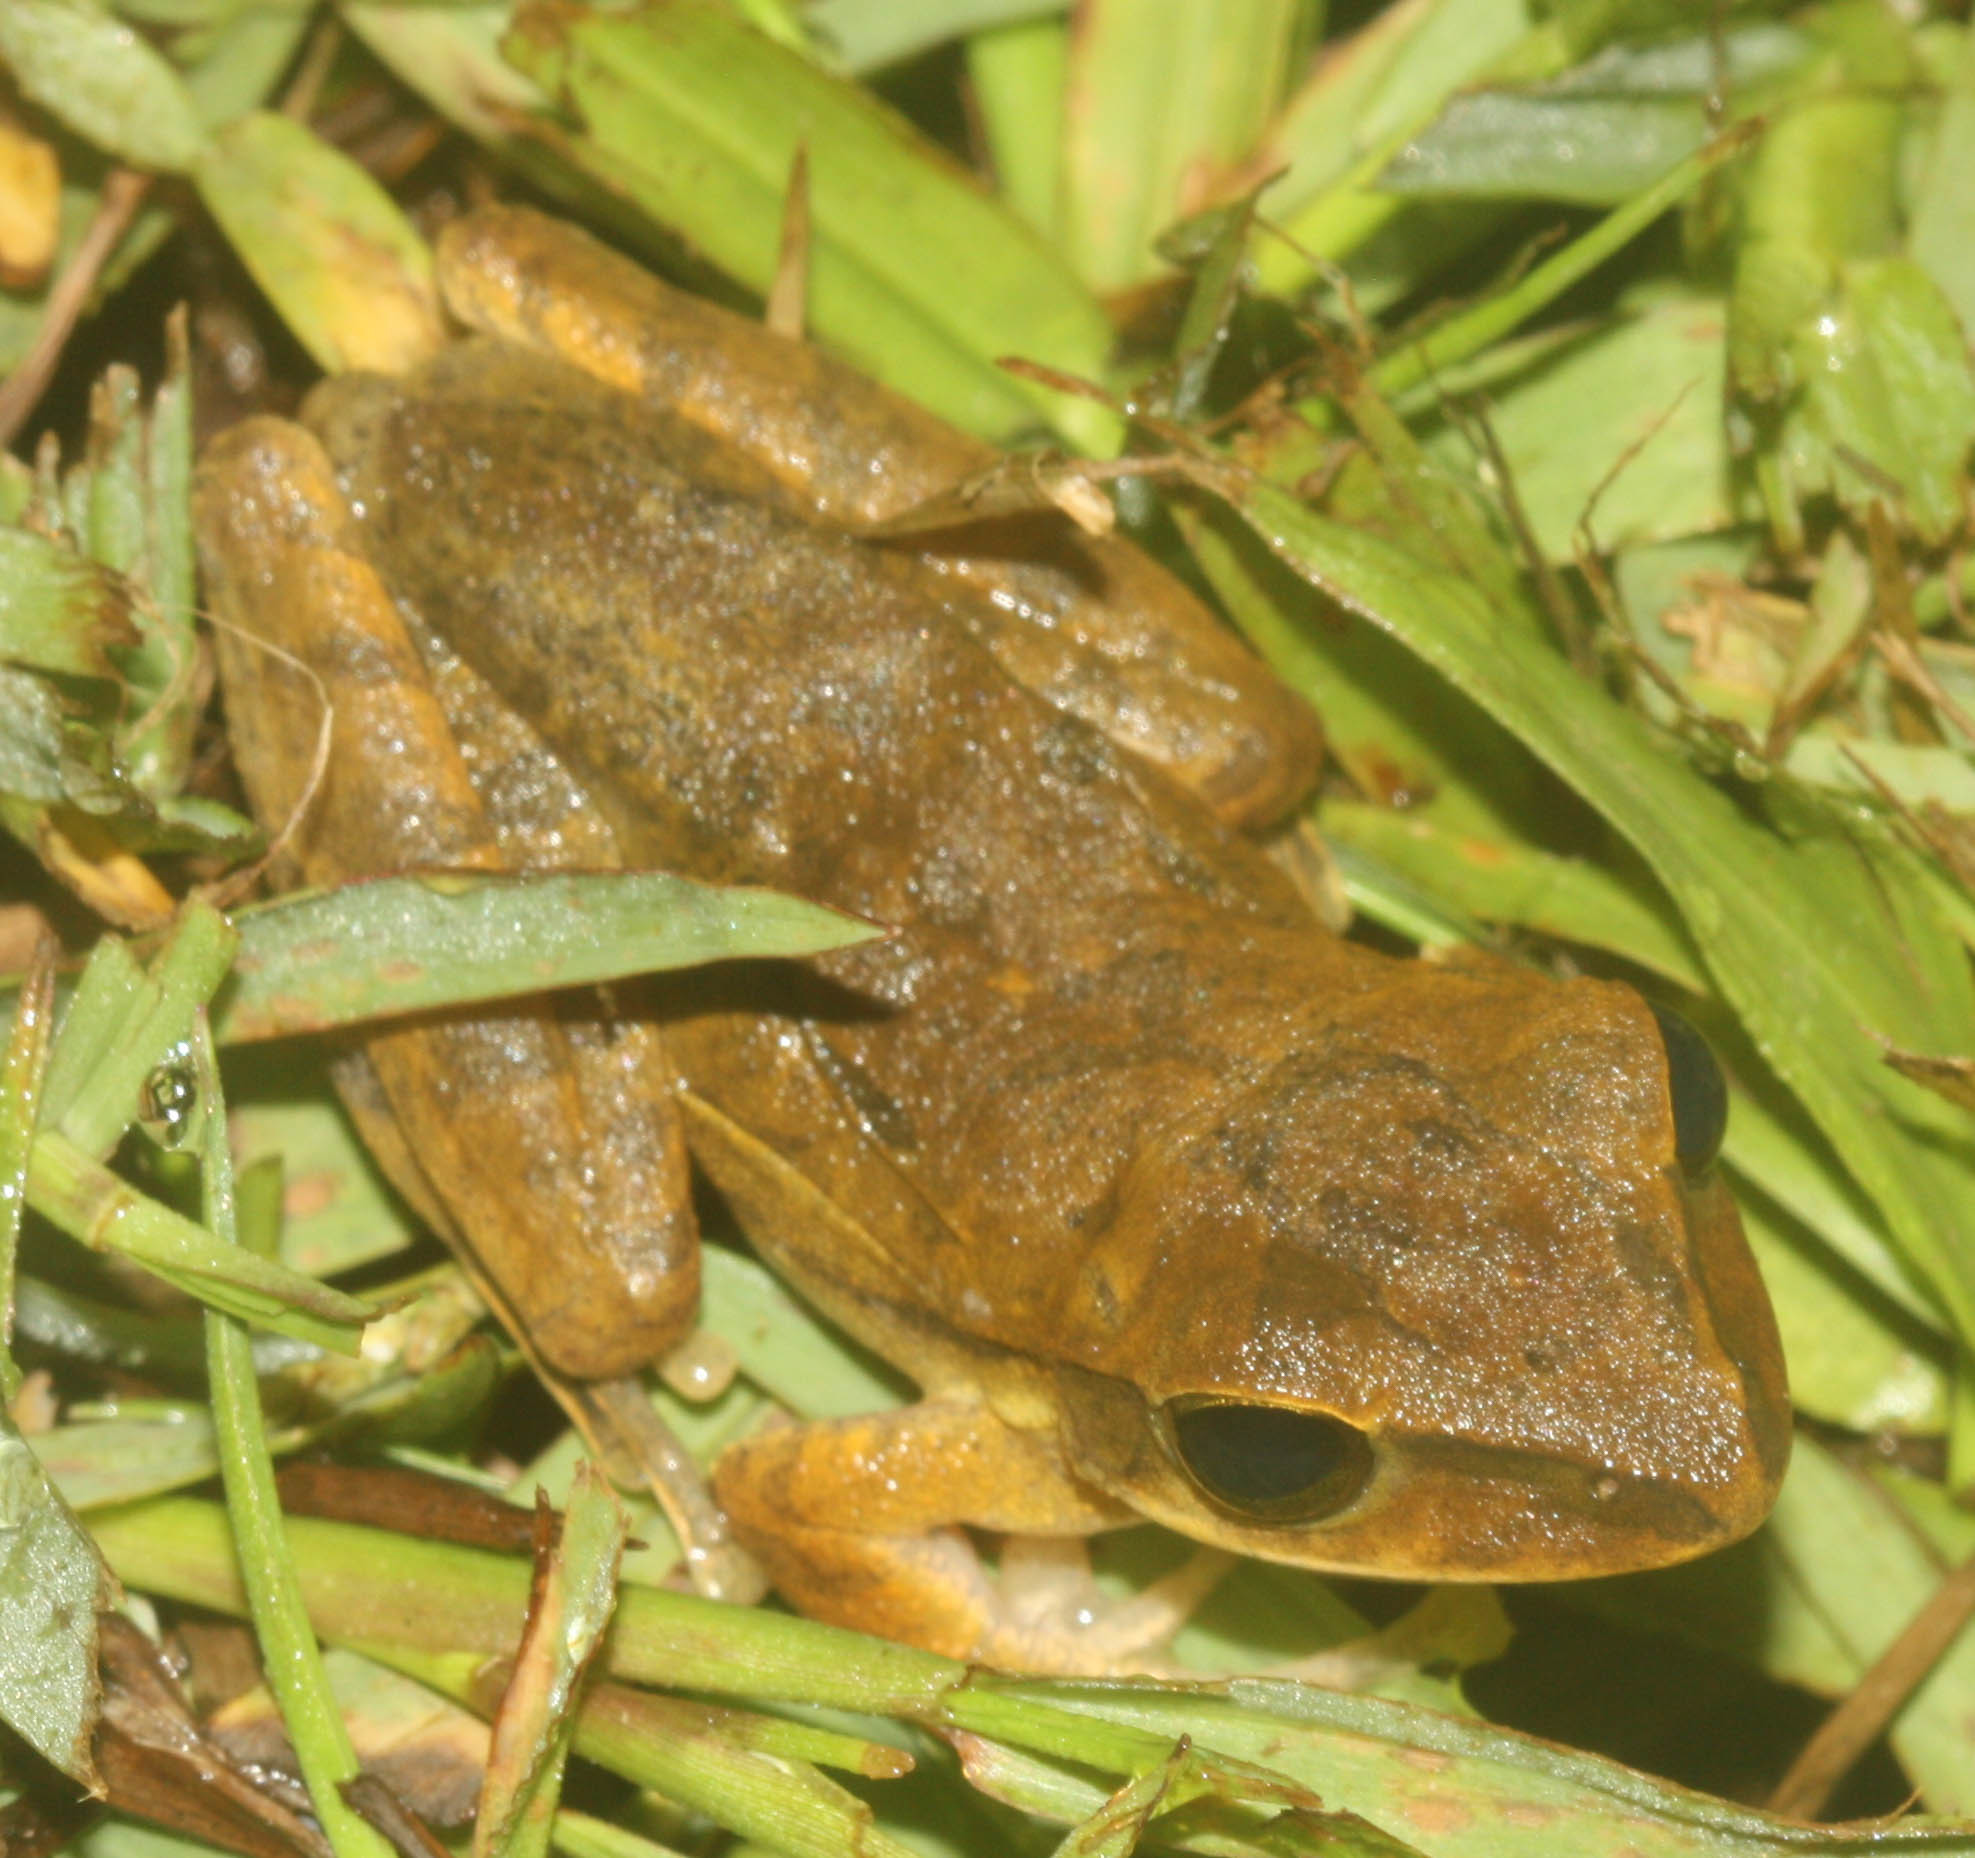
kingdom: Animalia
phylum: Chordata
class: Amphibia
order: Anura
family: Rhacophoridae
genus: Polypedates
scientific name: Polypedates megacephalus
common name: Hong kong whipping frog
